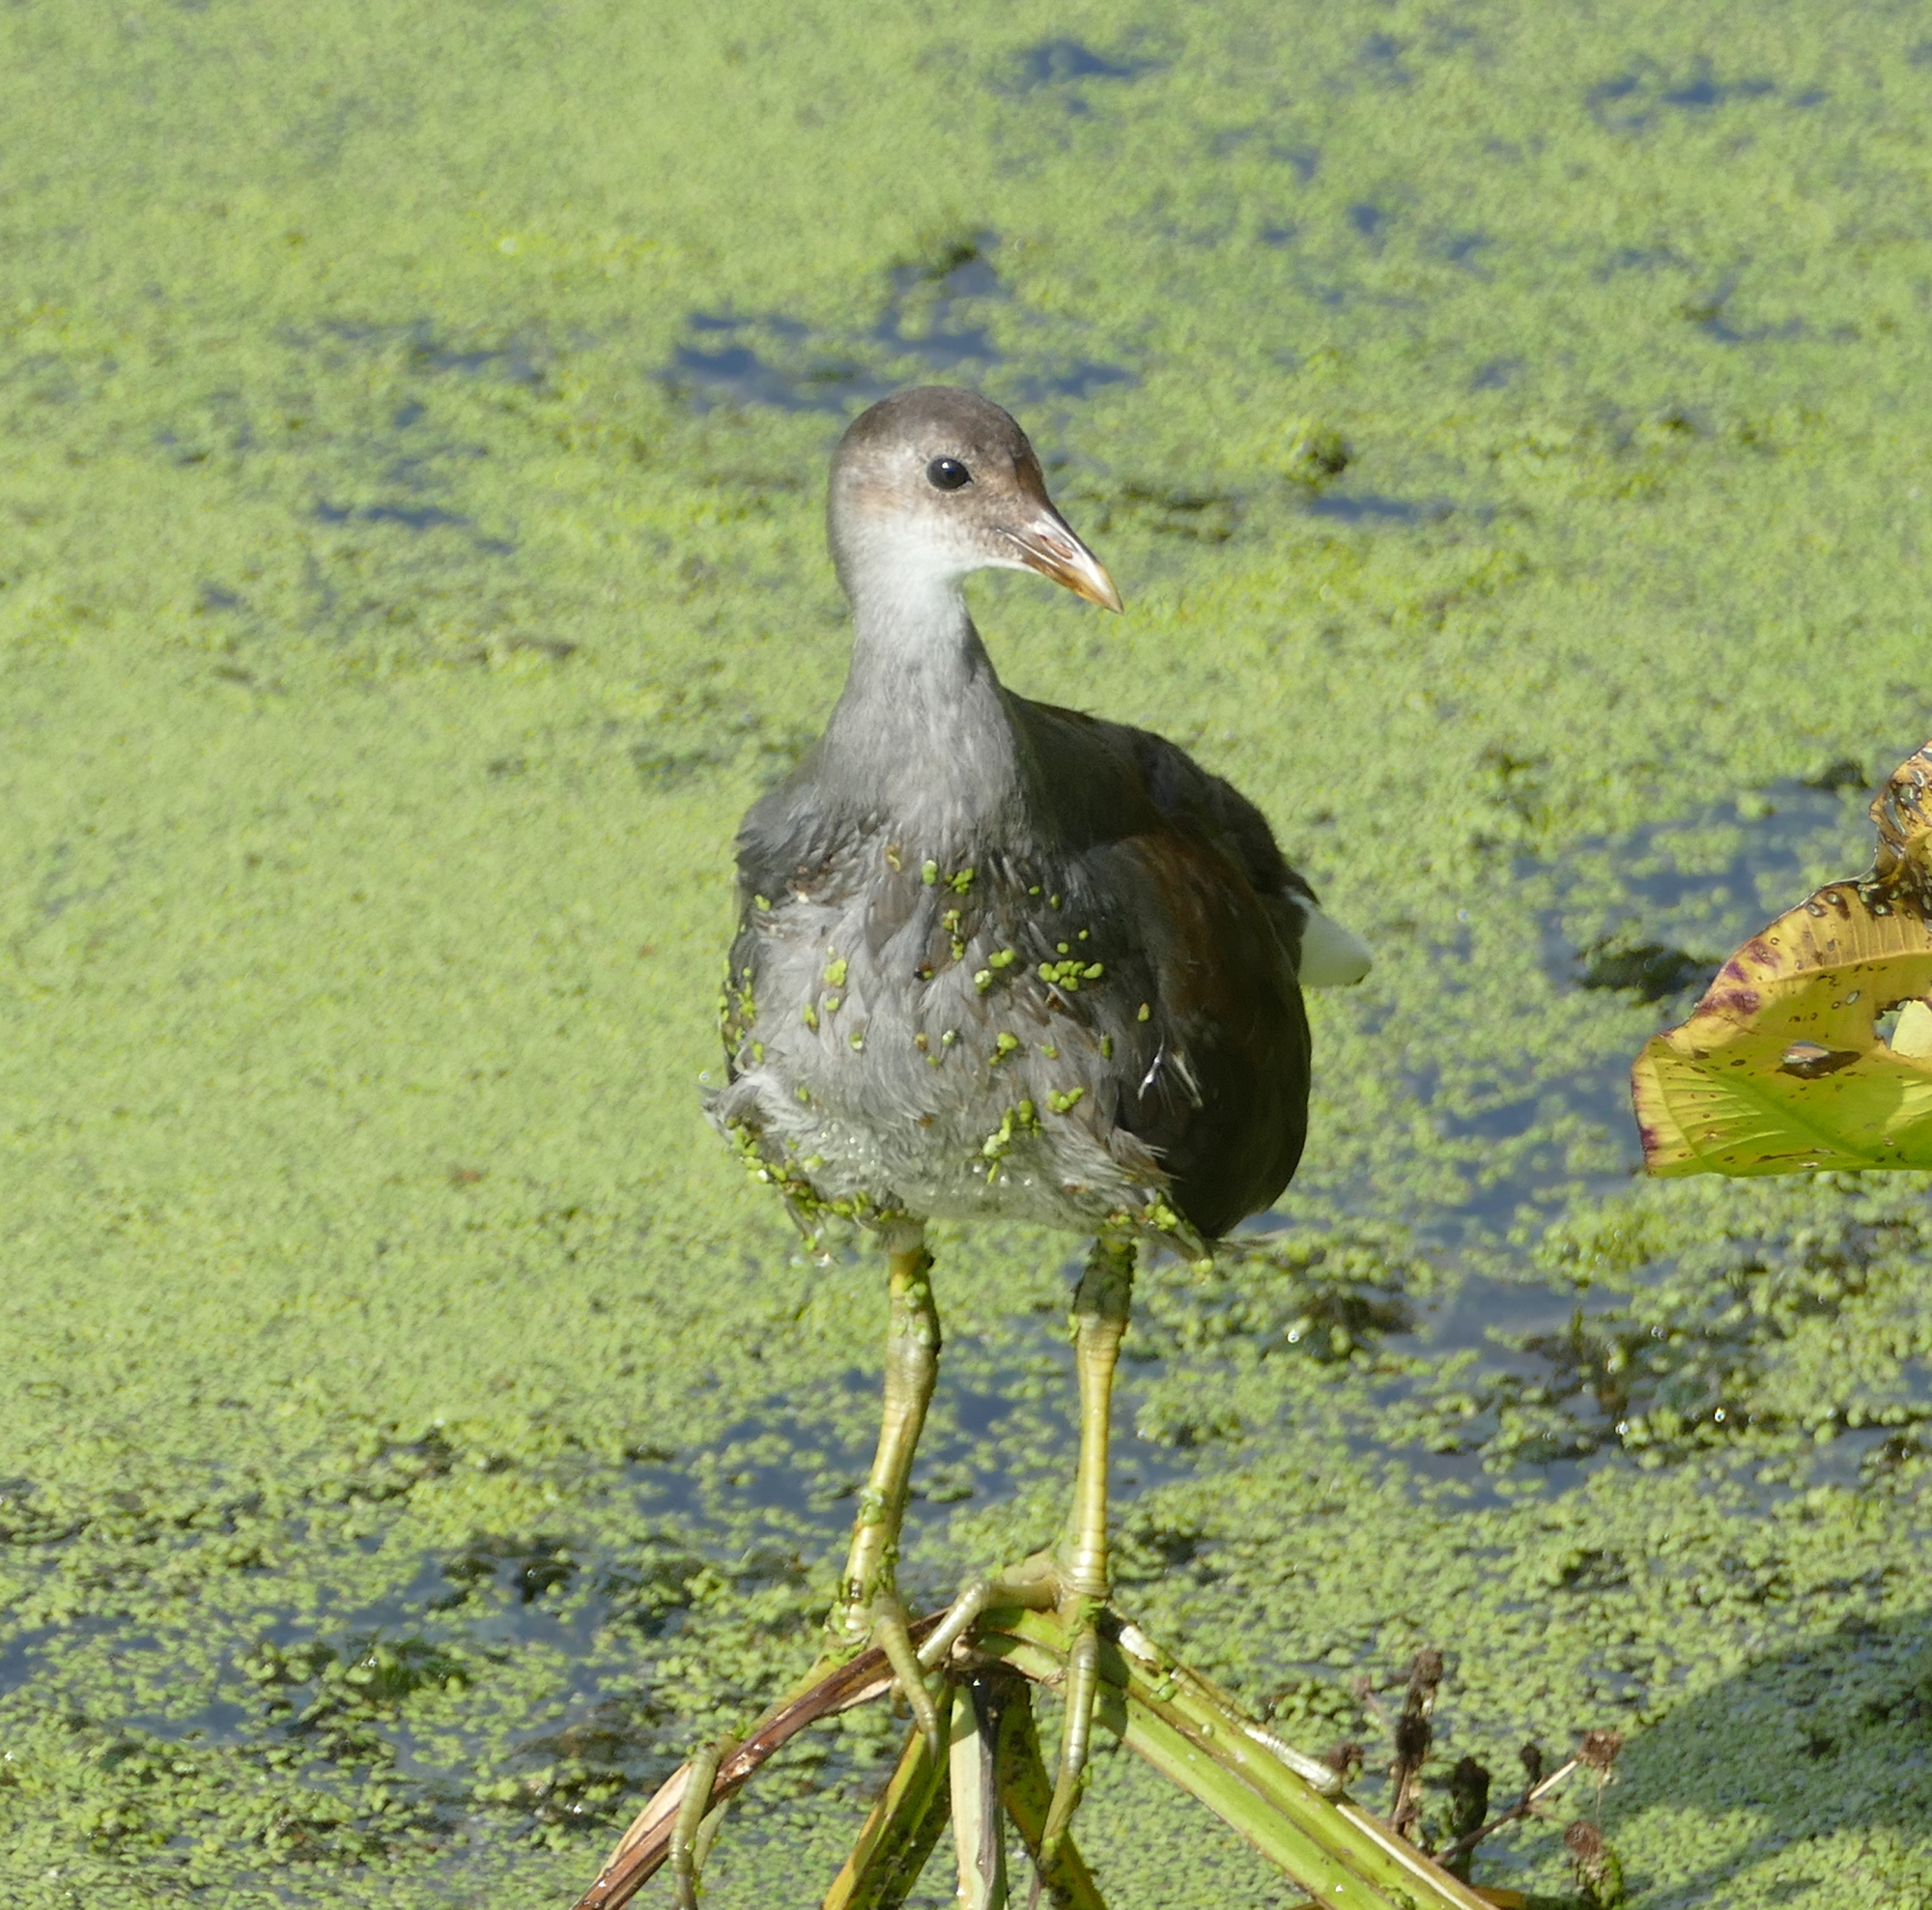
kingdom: Animalia
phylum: Chordata
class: Aves
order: Gruiformes
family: Rallidae
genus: Gallinula
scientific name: Gallinula chloropus
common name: Common moorhen
